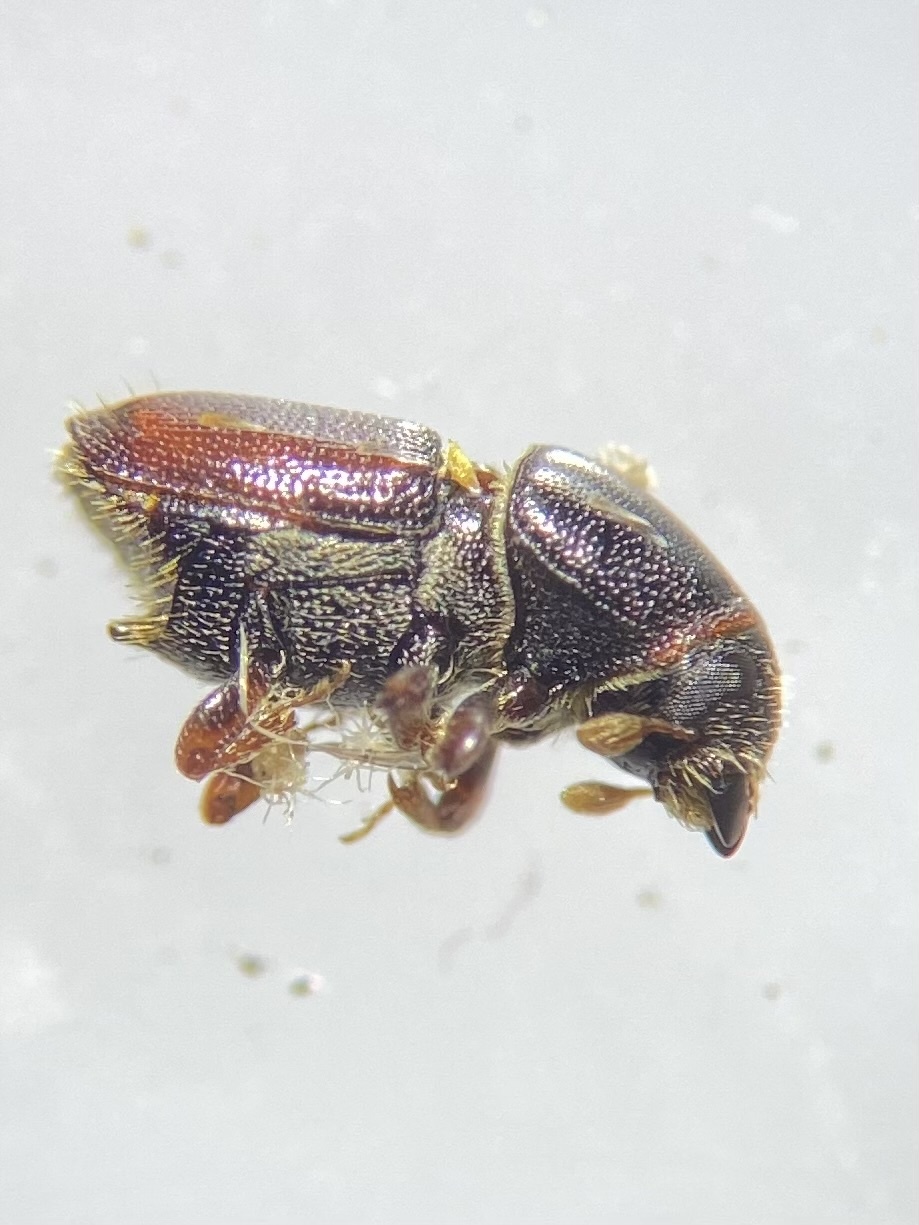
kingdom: Animalia
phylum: Arthropoda
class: Insecta
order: Coleoptera
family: Curculionidae
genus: Scolytus
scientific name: Scolytus multistriatus
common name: European elm bark beetle
